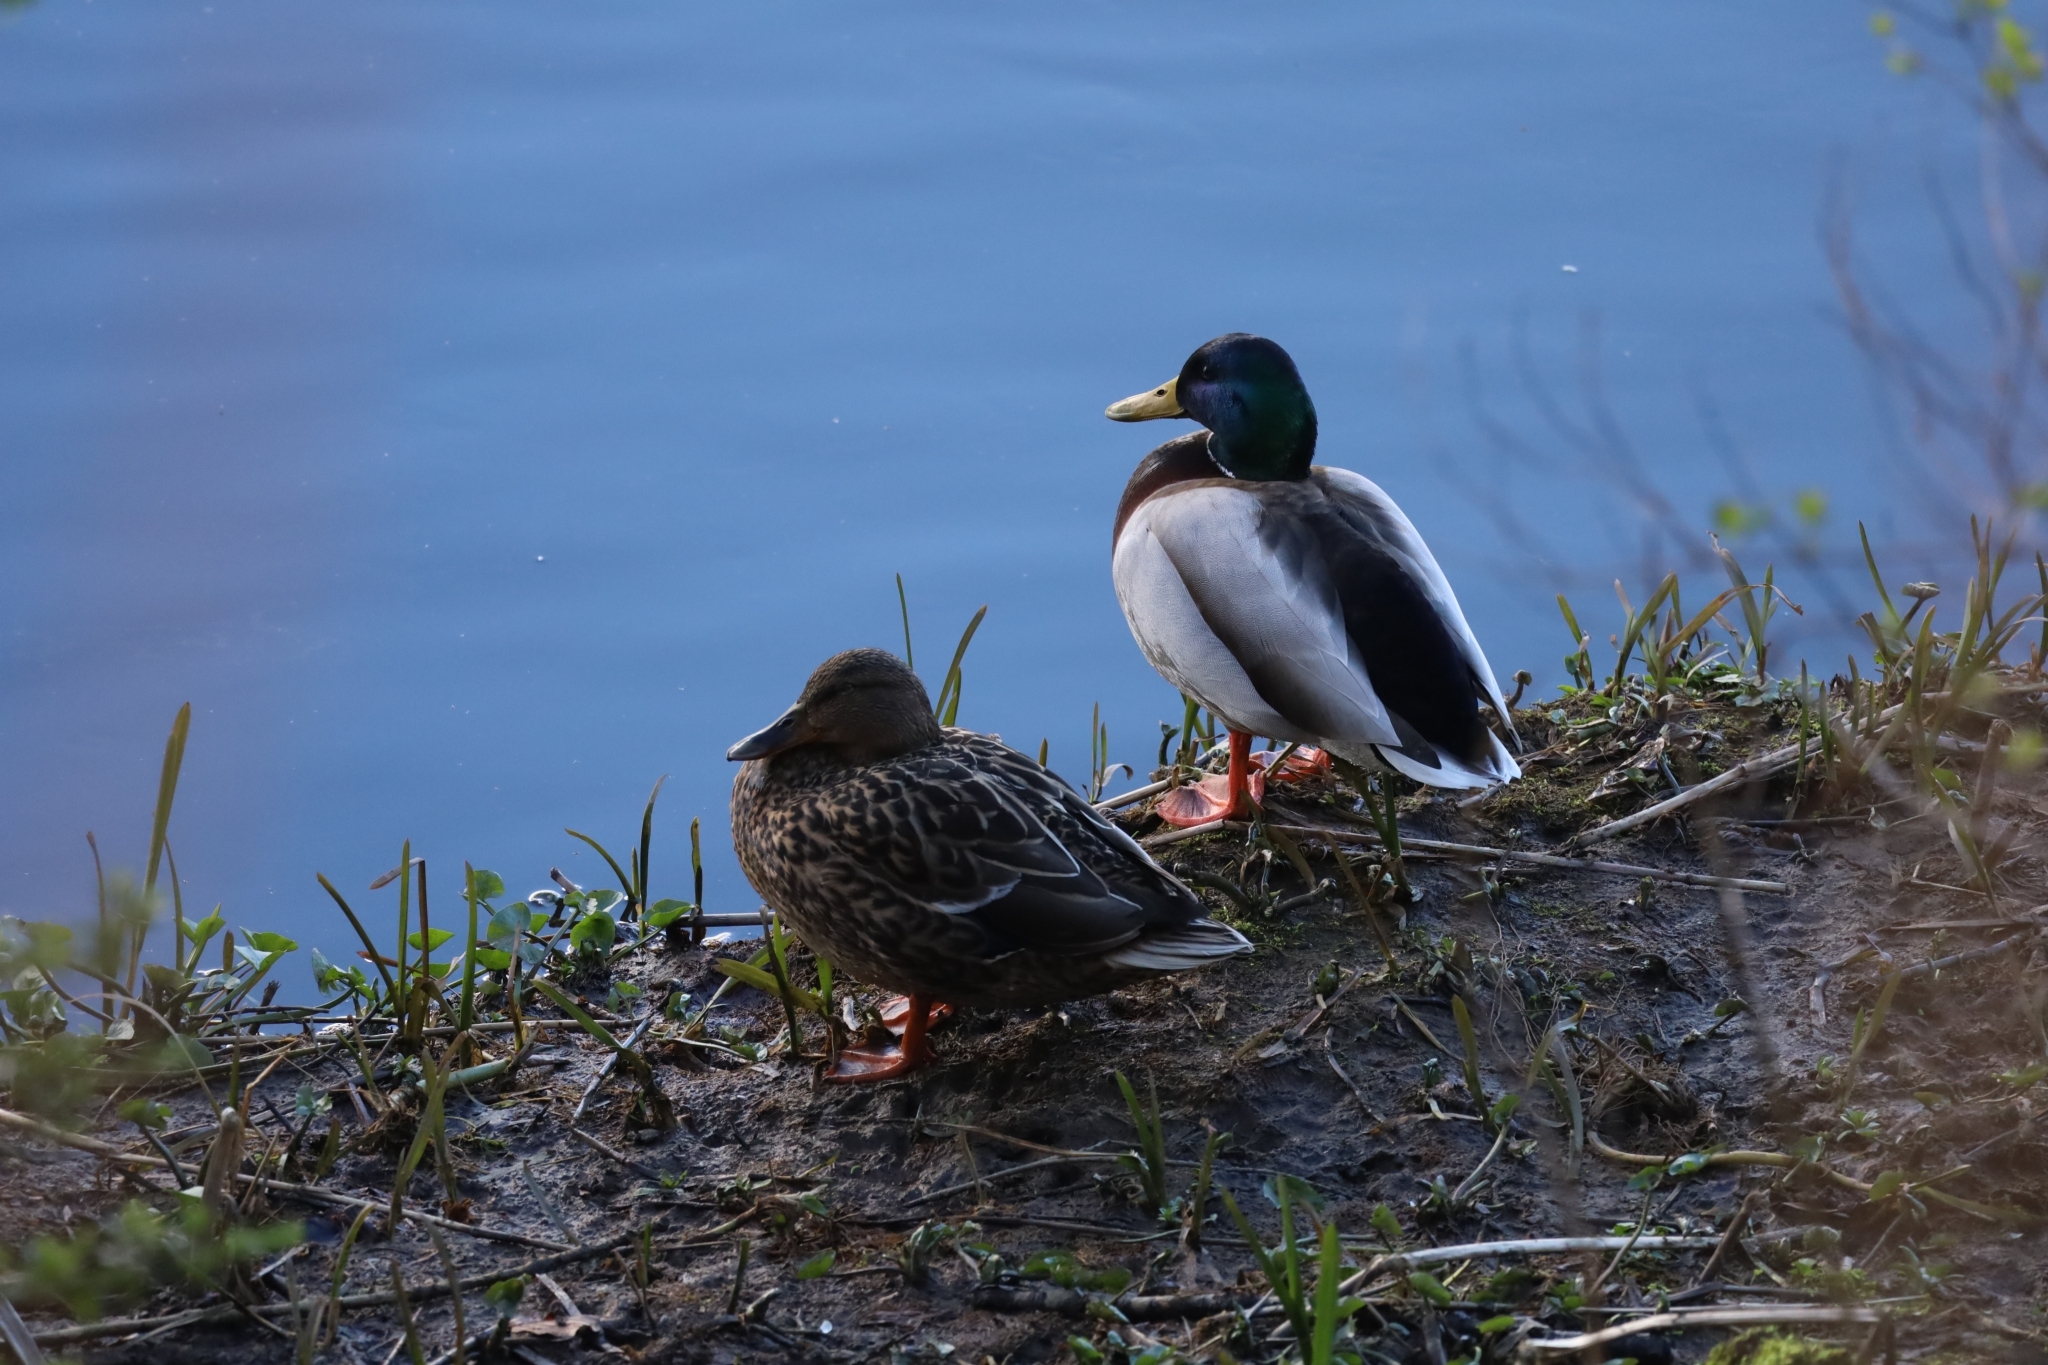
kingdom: Animalia
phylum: Chordata
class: Aves
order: Anseriformes
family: Anatidae
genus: Anas
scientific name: Anas platyrhynchos
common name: Mallard
